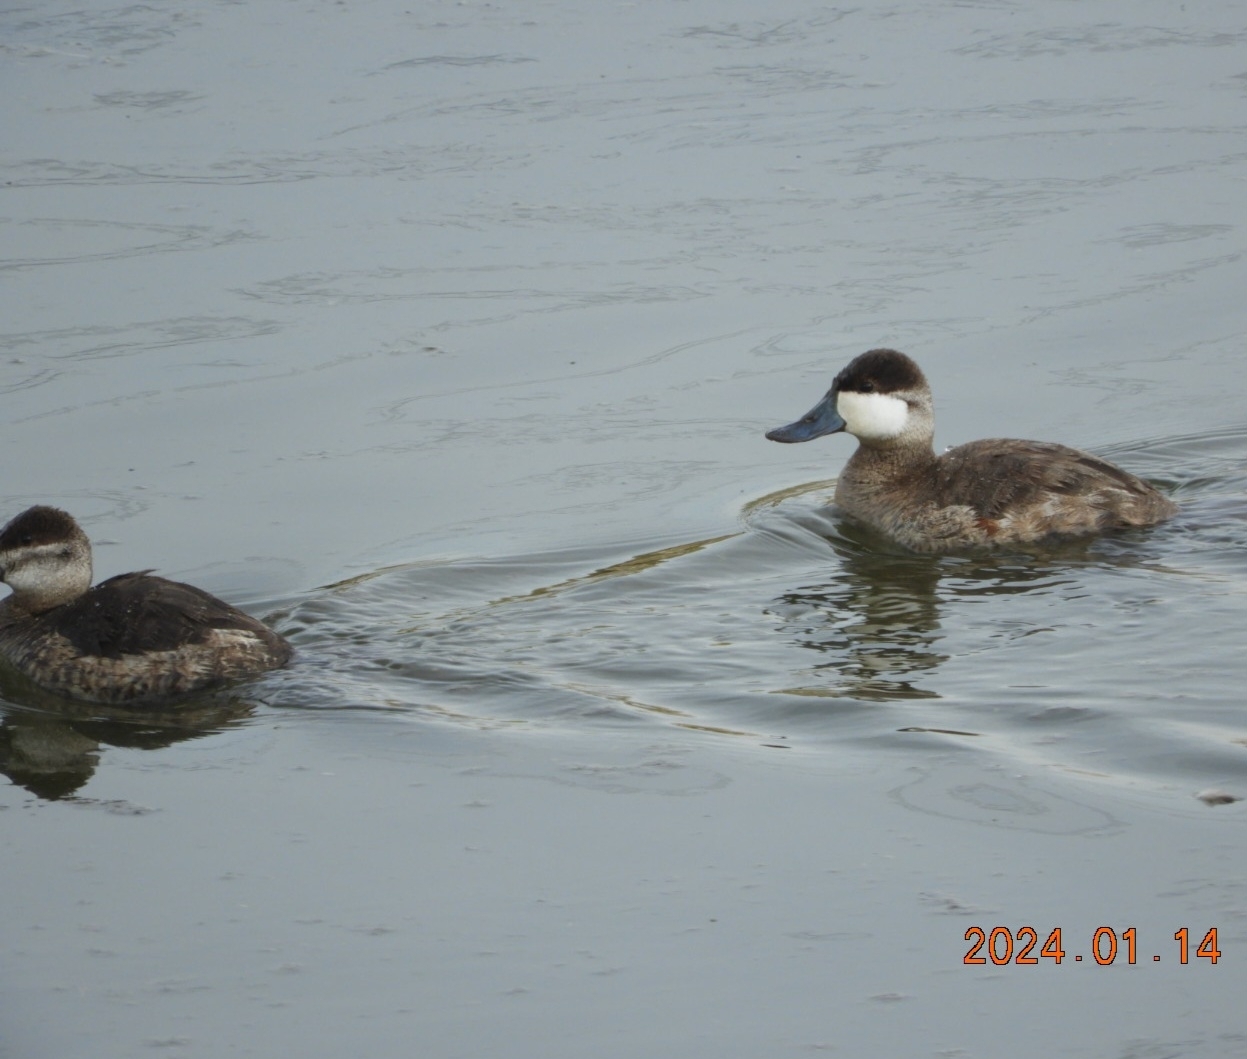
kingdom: Animalia
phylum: Chordata
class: Aves
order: Anseriformes
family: Anatidae
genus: Oxyura
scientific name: Oxyura jamaicensis
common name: Ruddy duck
